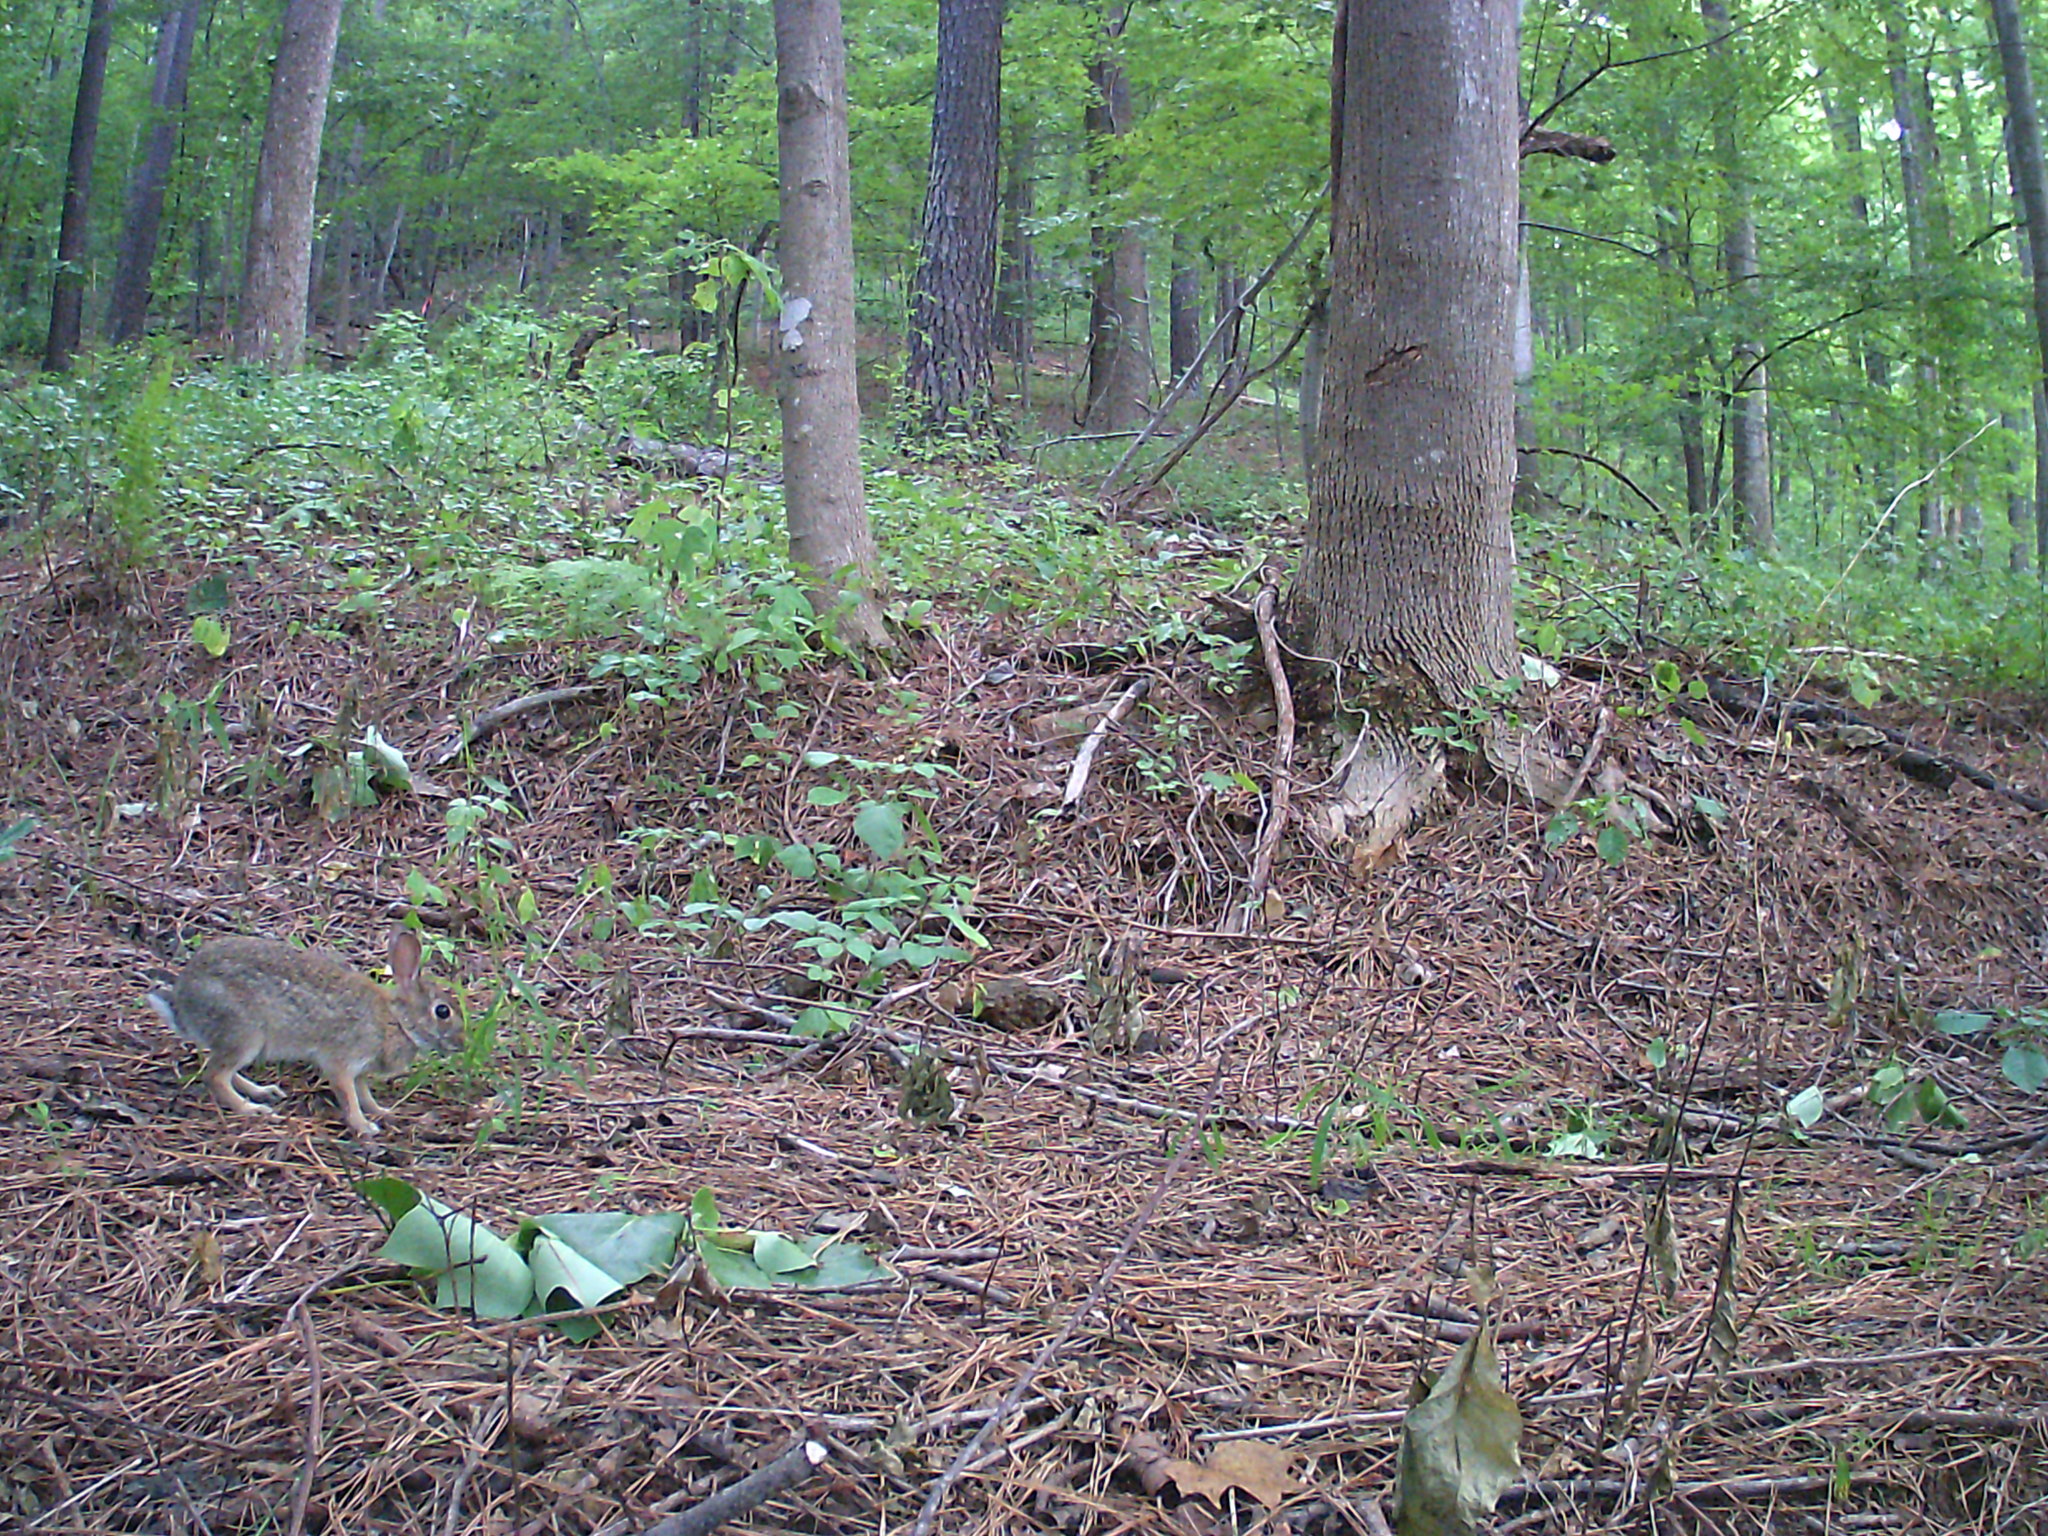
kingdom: Animalia
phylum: Chordata
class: Mammalia
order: Lagomorpha
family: Leporidae
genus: Sylvilagus
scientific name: Sylvilagus floridanus
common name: Eastern cottontail
